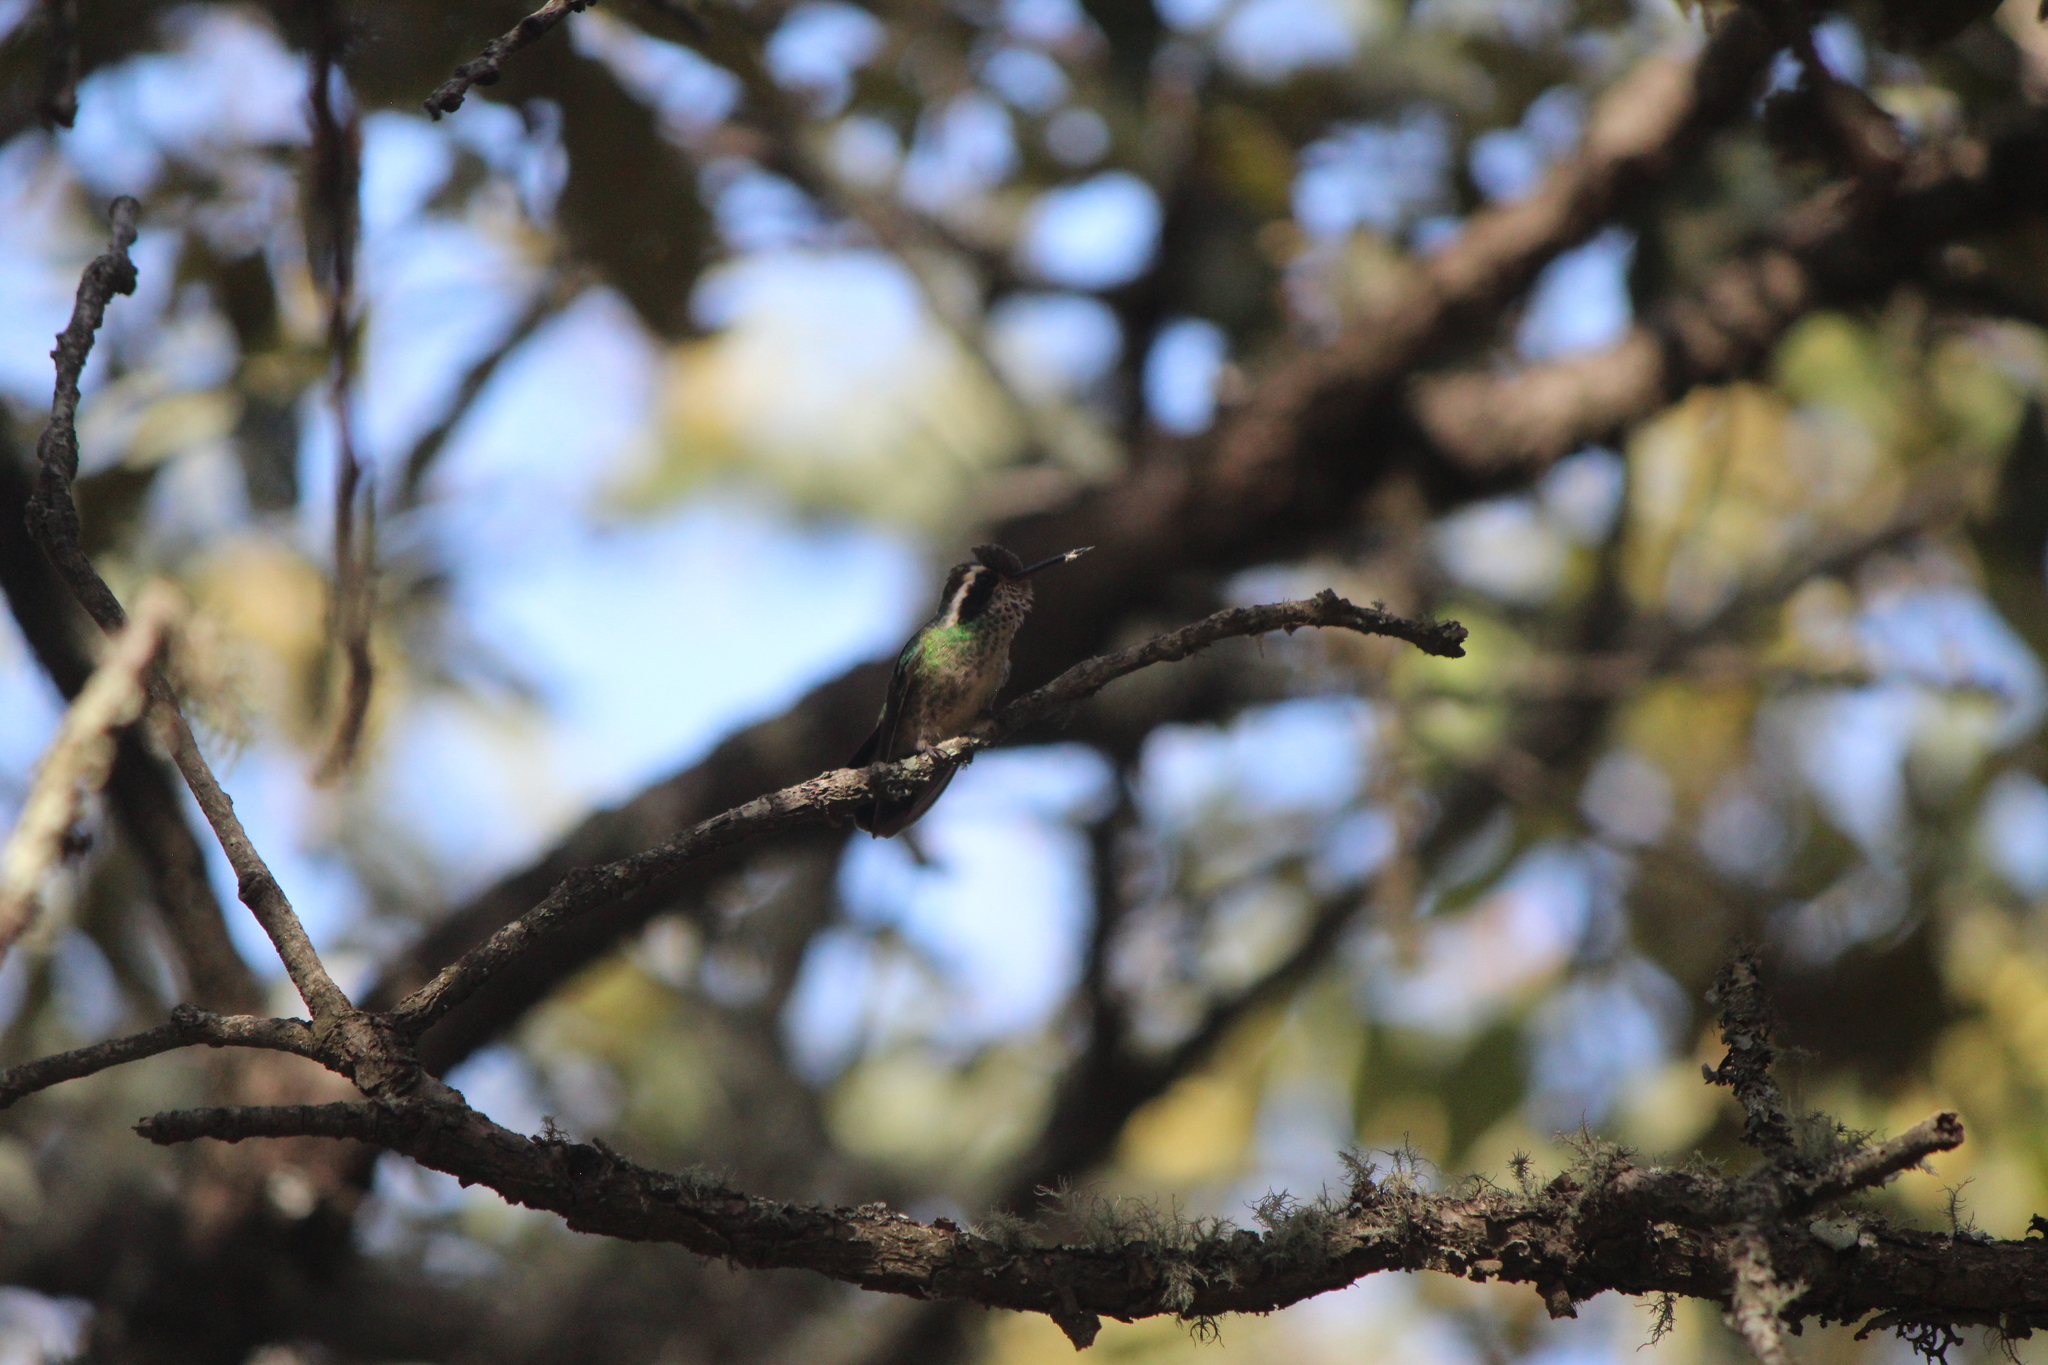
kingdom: Animalia
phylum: Chordata
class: Aves
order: Apodiformes
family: Trochilidae
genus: Basilinna
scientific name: Basilinna leucotis
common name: White-eared hummingbird
